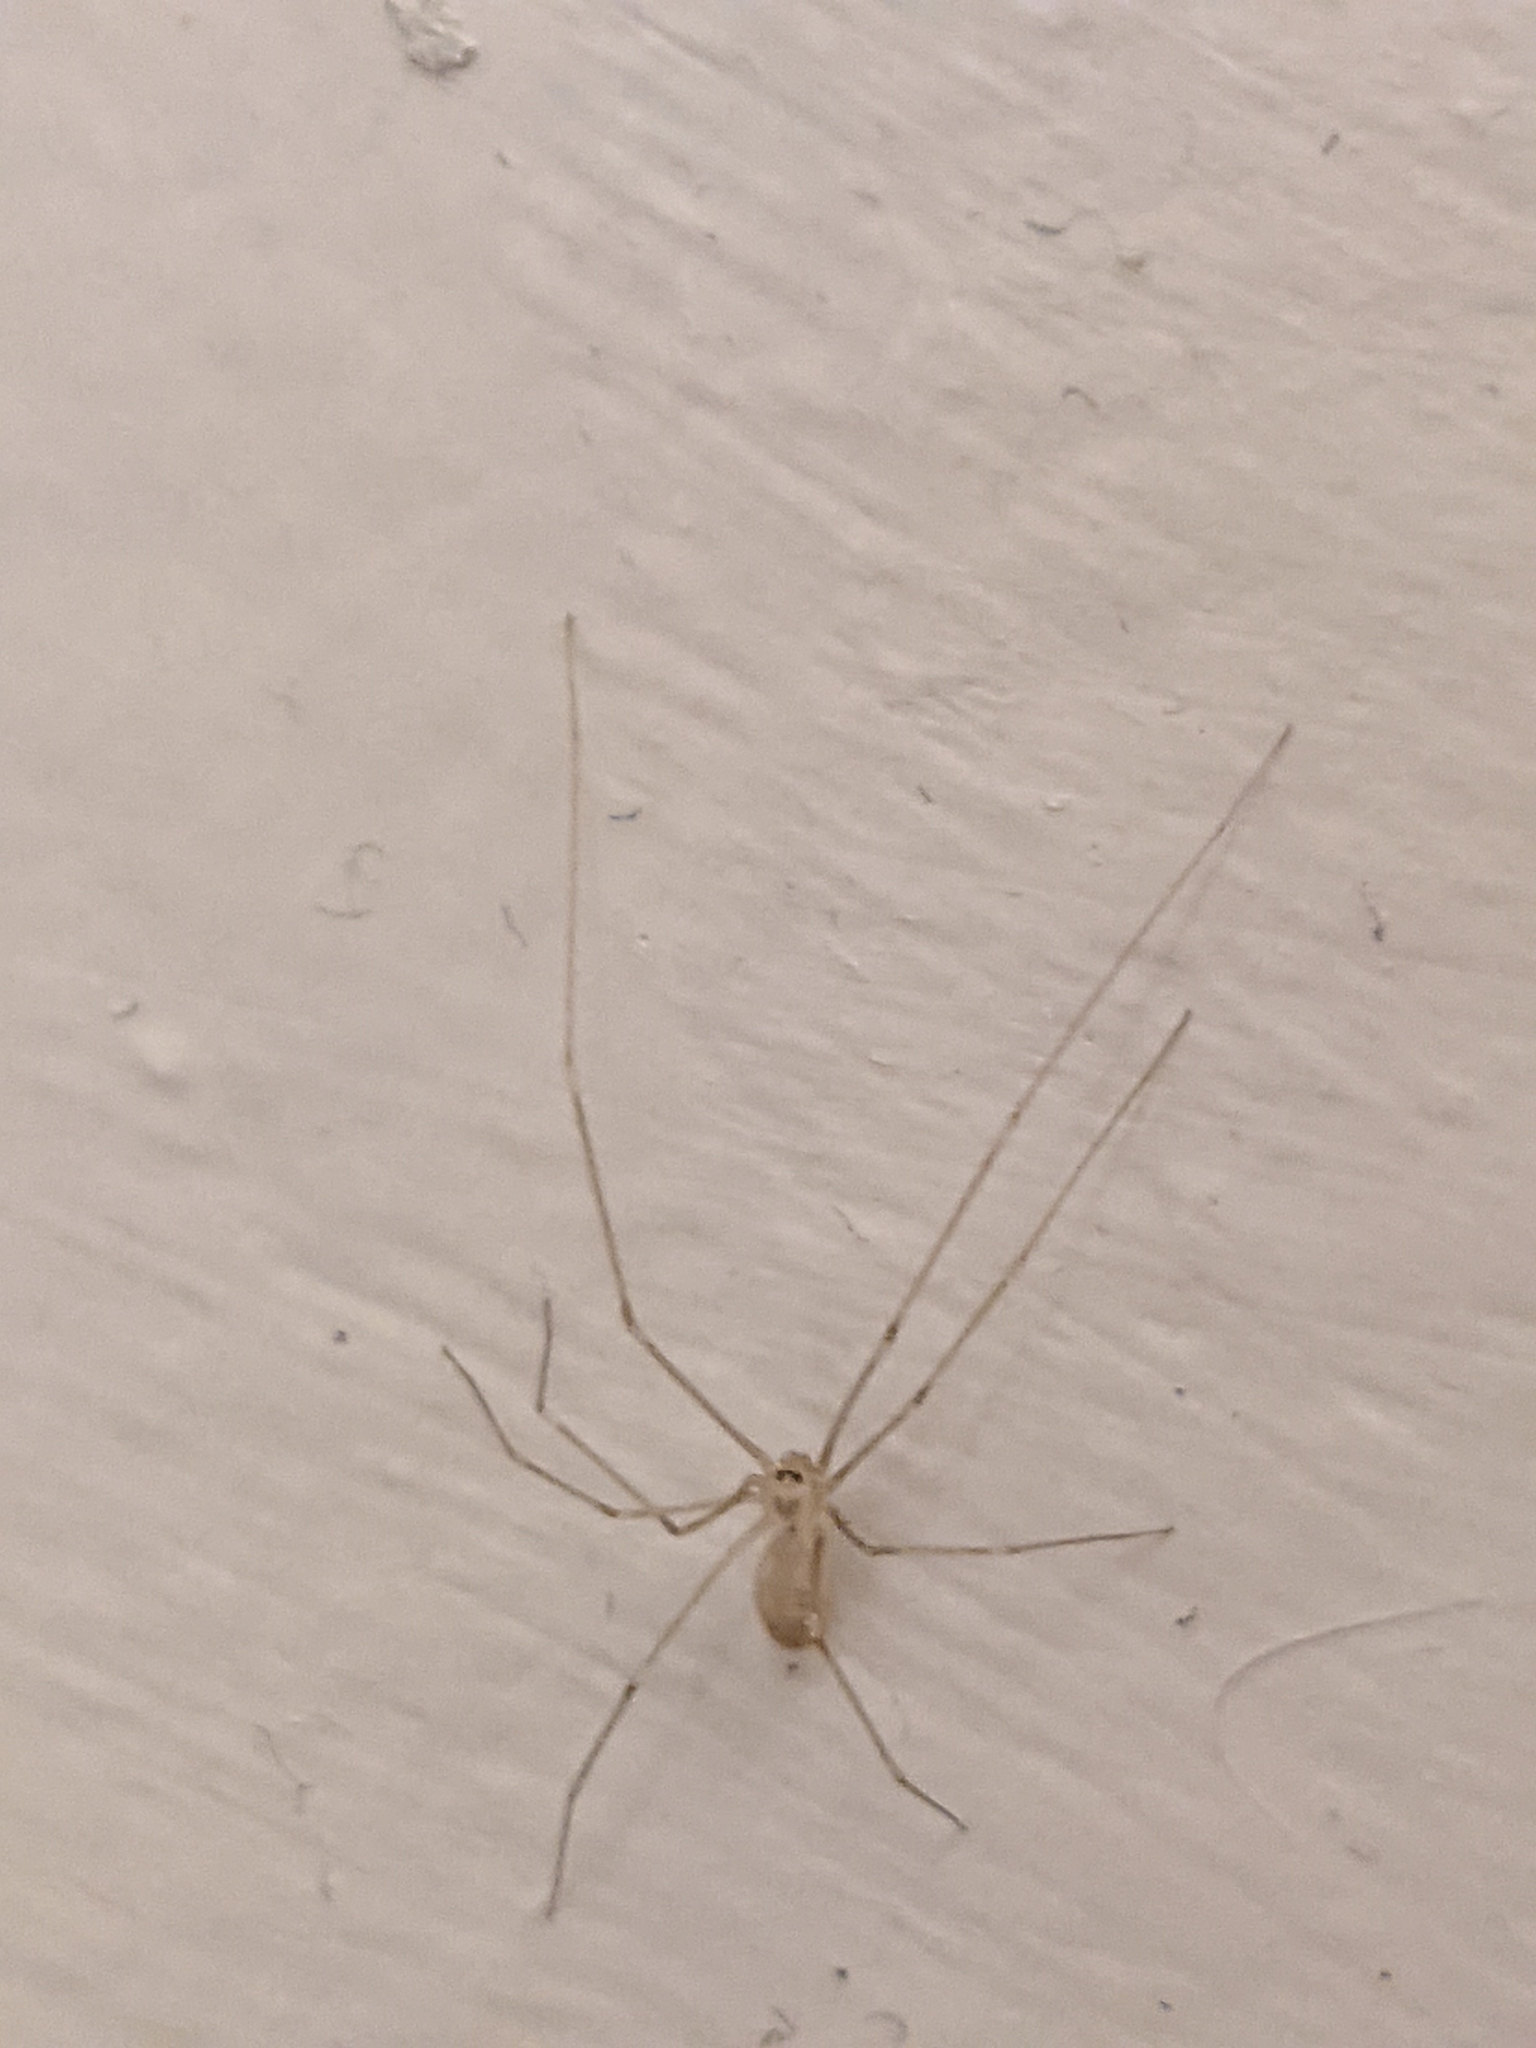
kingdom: Animalia
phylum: Arthropoda
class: Arachnida
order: Araneae
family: Pholcidae
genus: Pholcus
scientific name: Pholcus phalangioides
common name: Longbodied cellar spider
